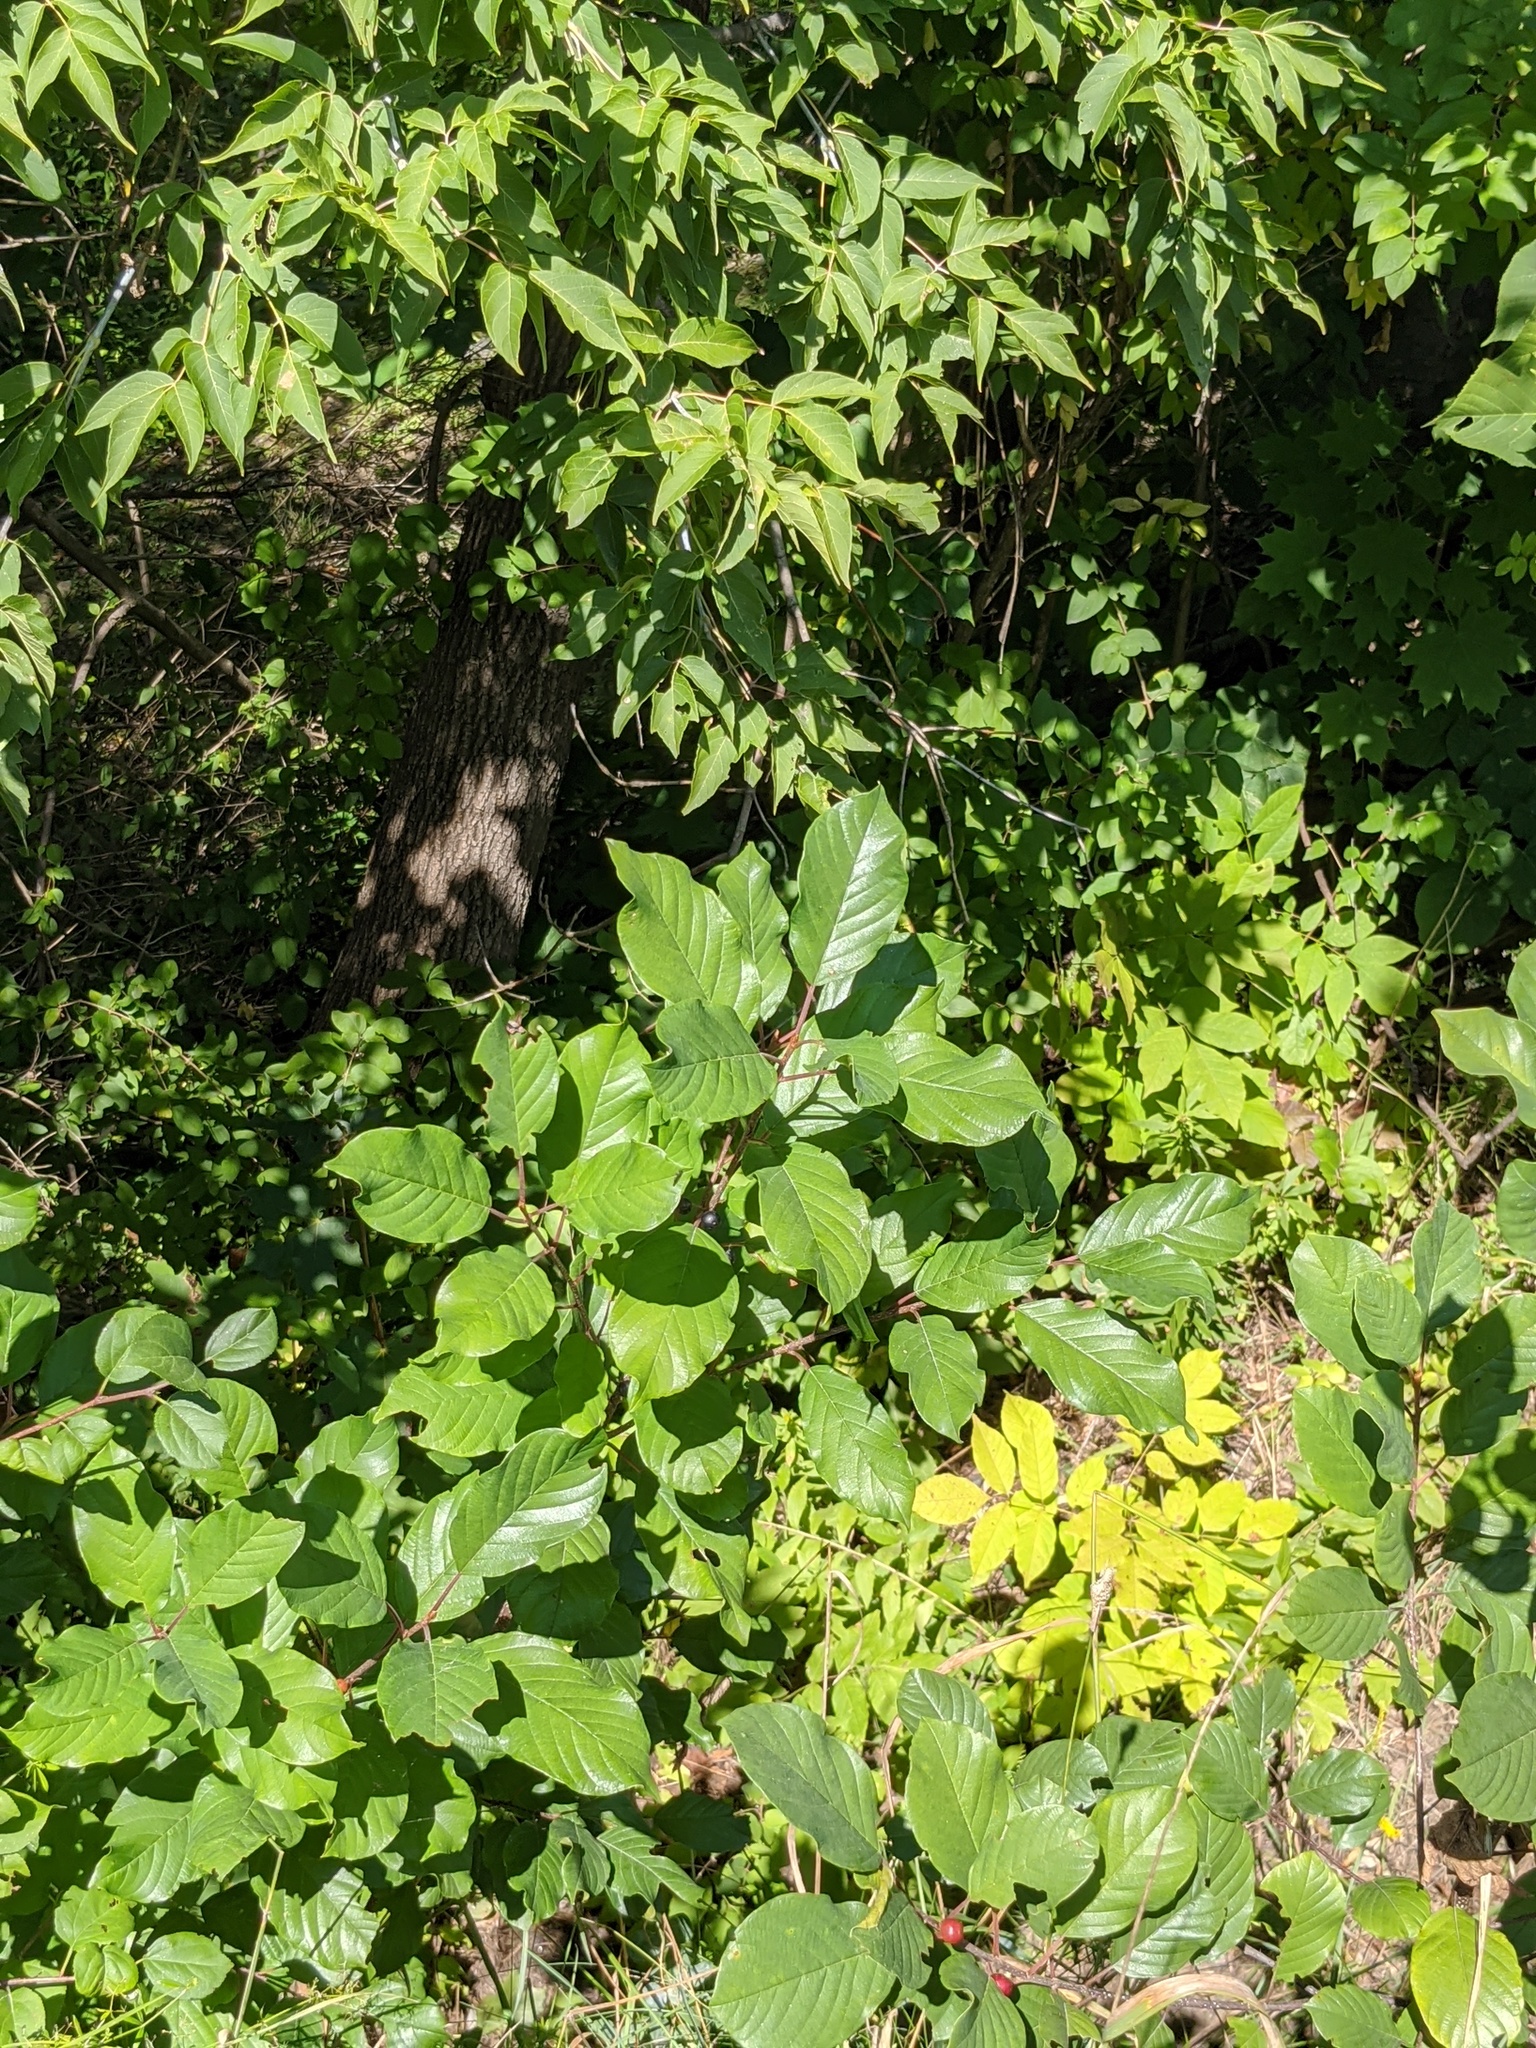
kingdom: Plantae
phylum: Tracheophyta
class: Magnoliopsida
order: Rosales
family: Rhamnaceae
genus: Frangula
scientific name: Frangula alnus
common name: Alder buckthorn
